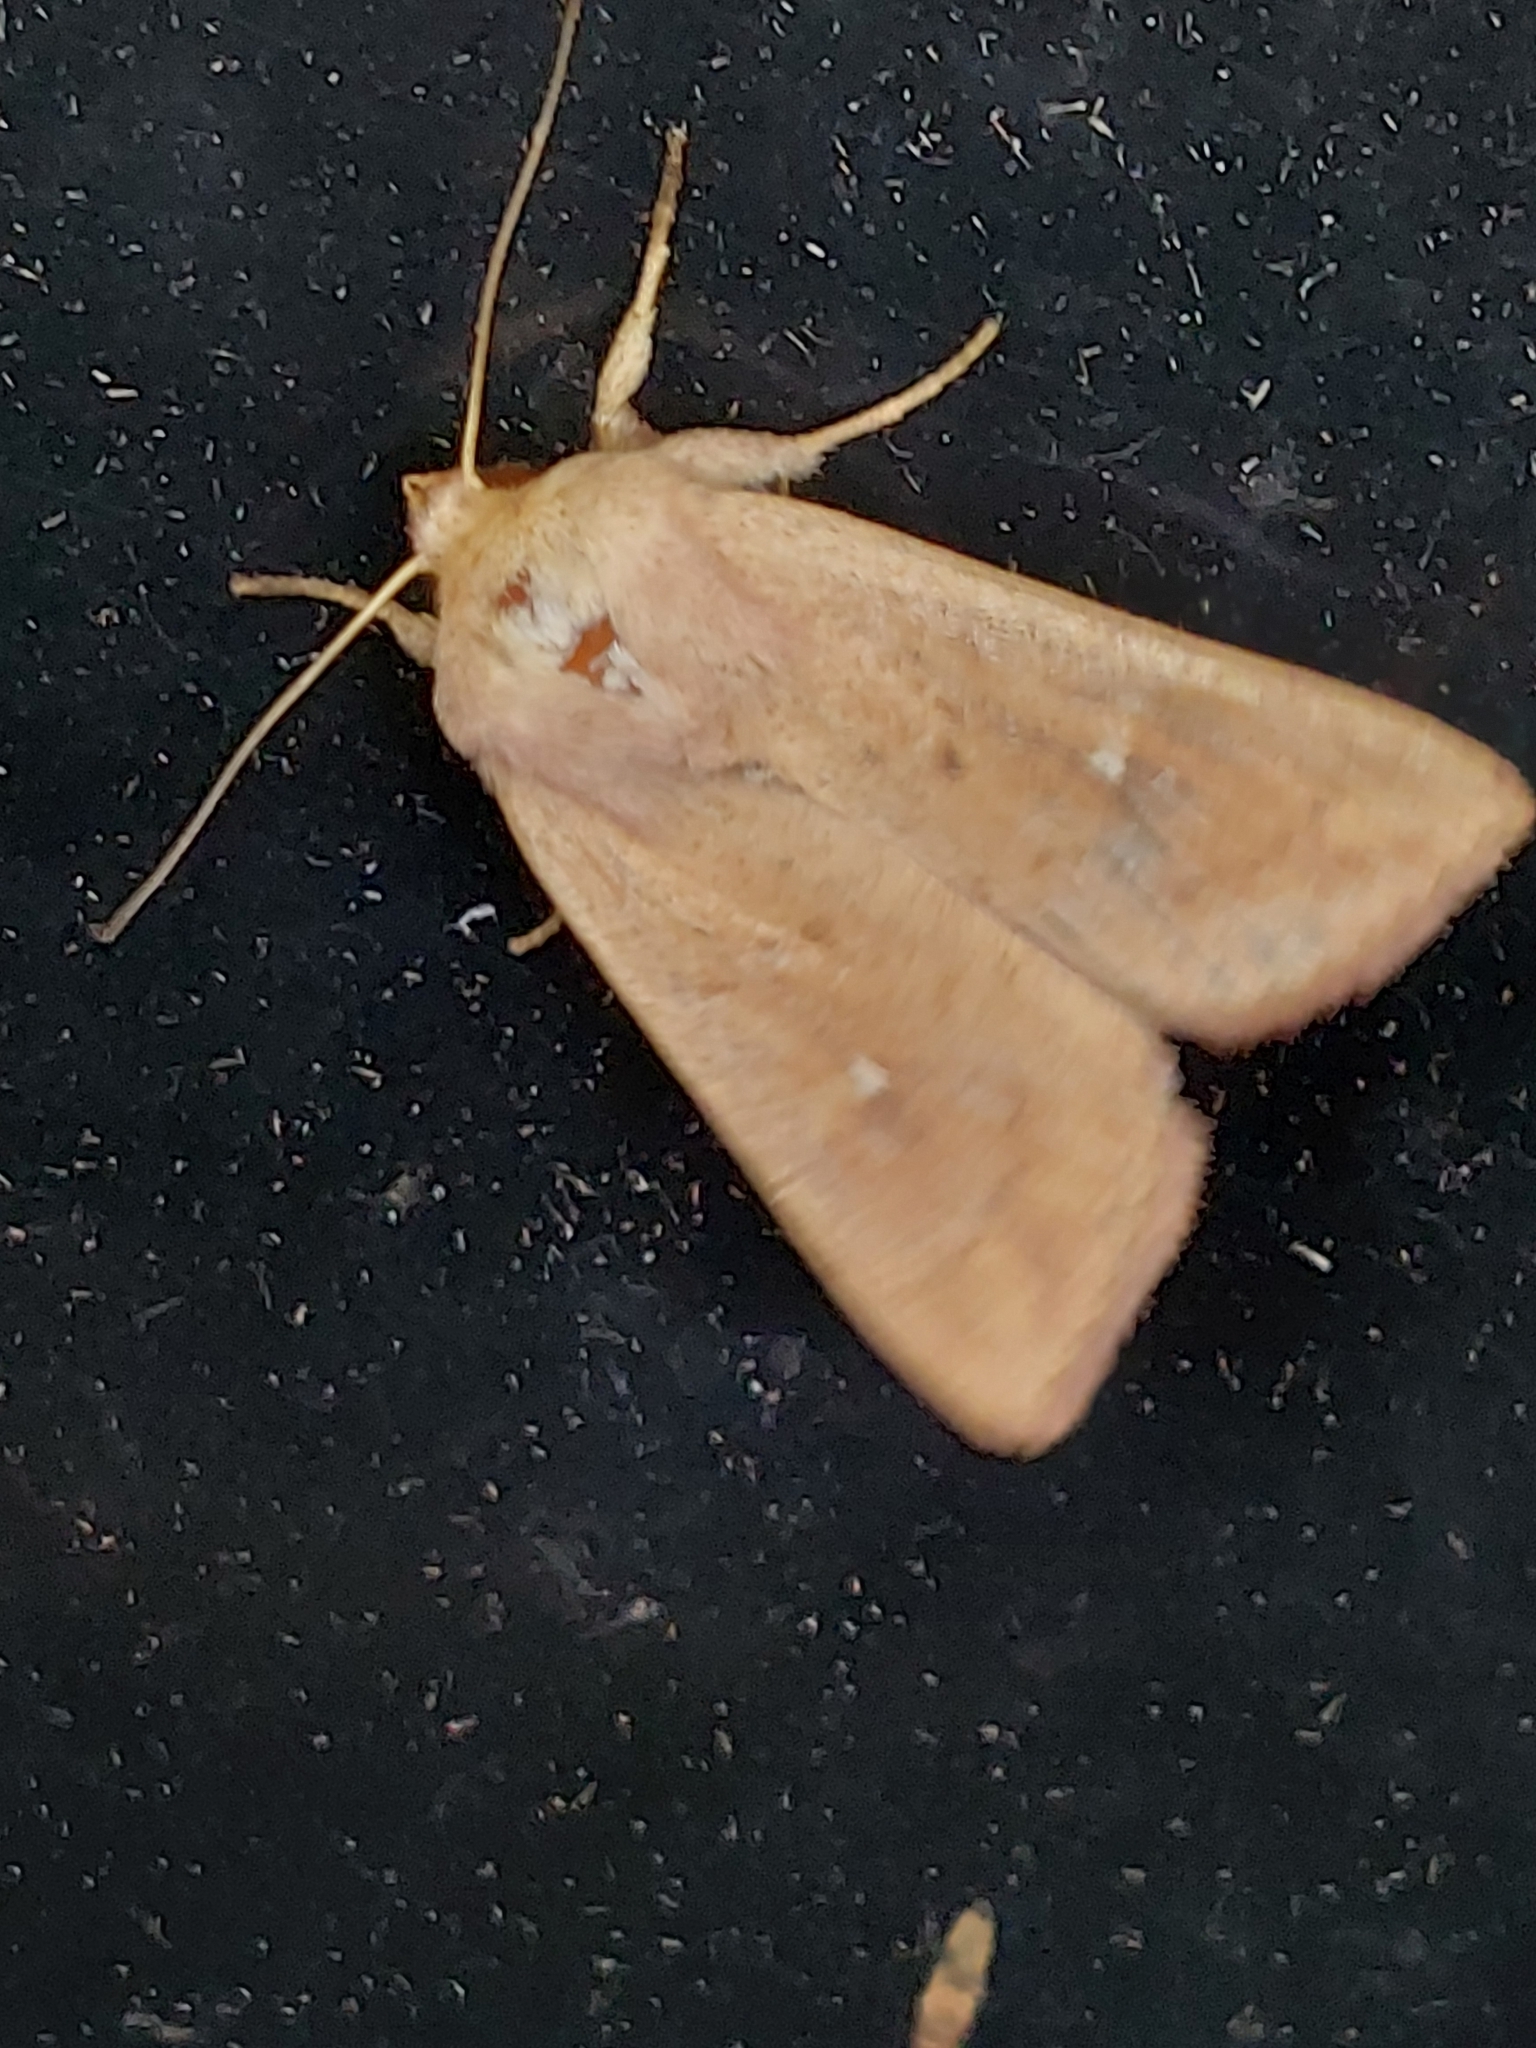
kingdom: Animalia
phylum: Arthropoda
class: Insecta
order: Lepidoptera
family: Noctuidae
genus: Mythimna
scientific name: Mythimna ferrago
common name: Clay
